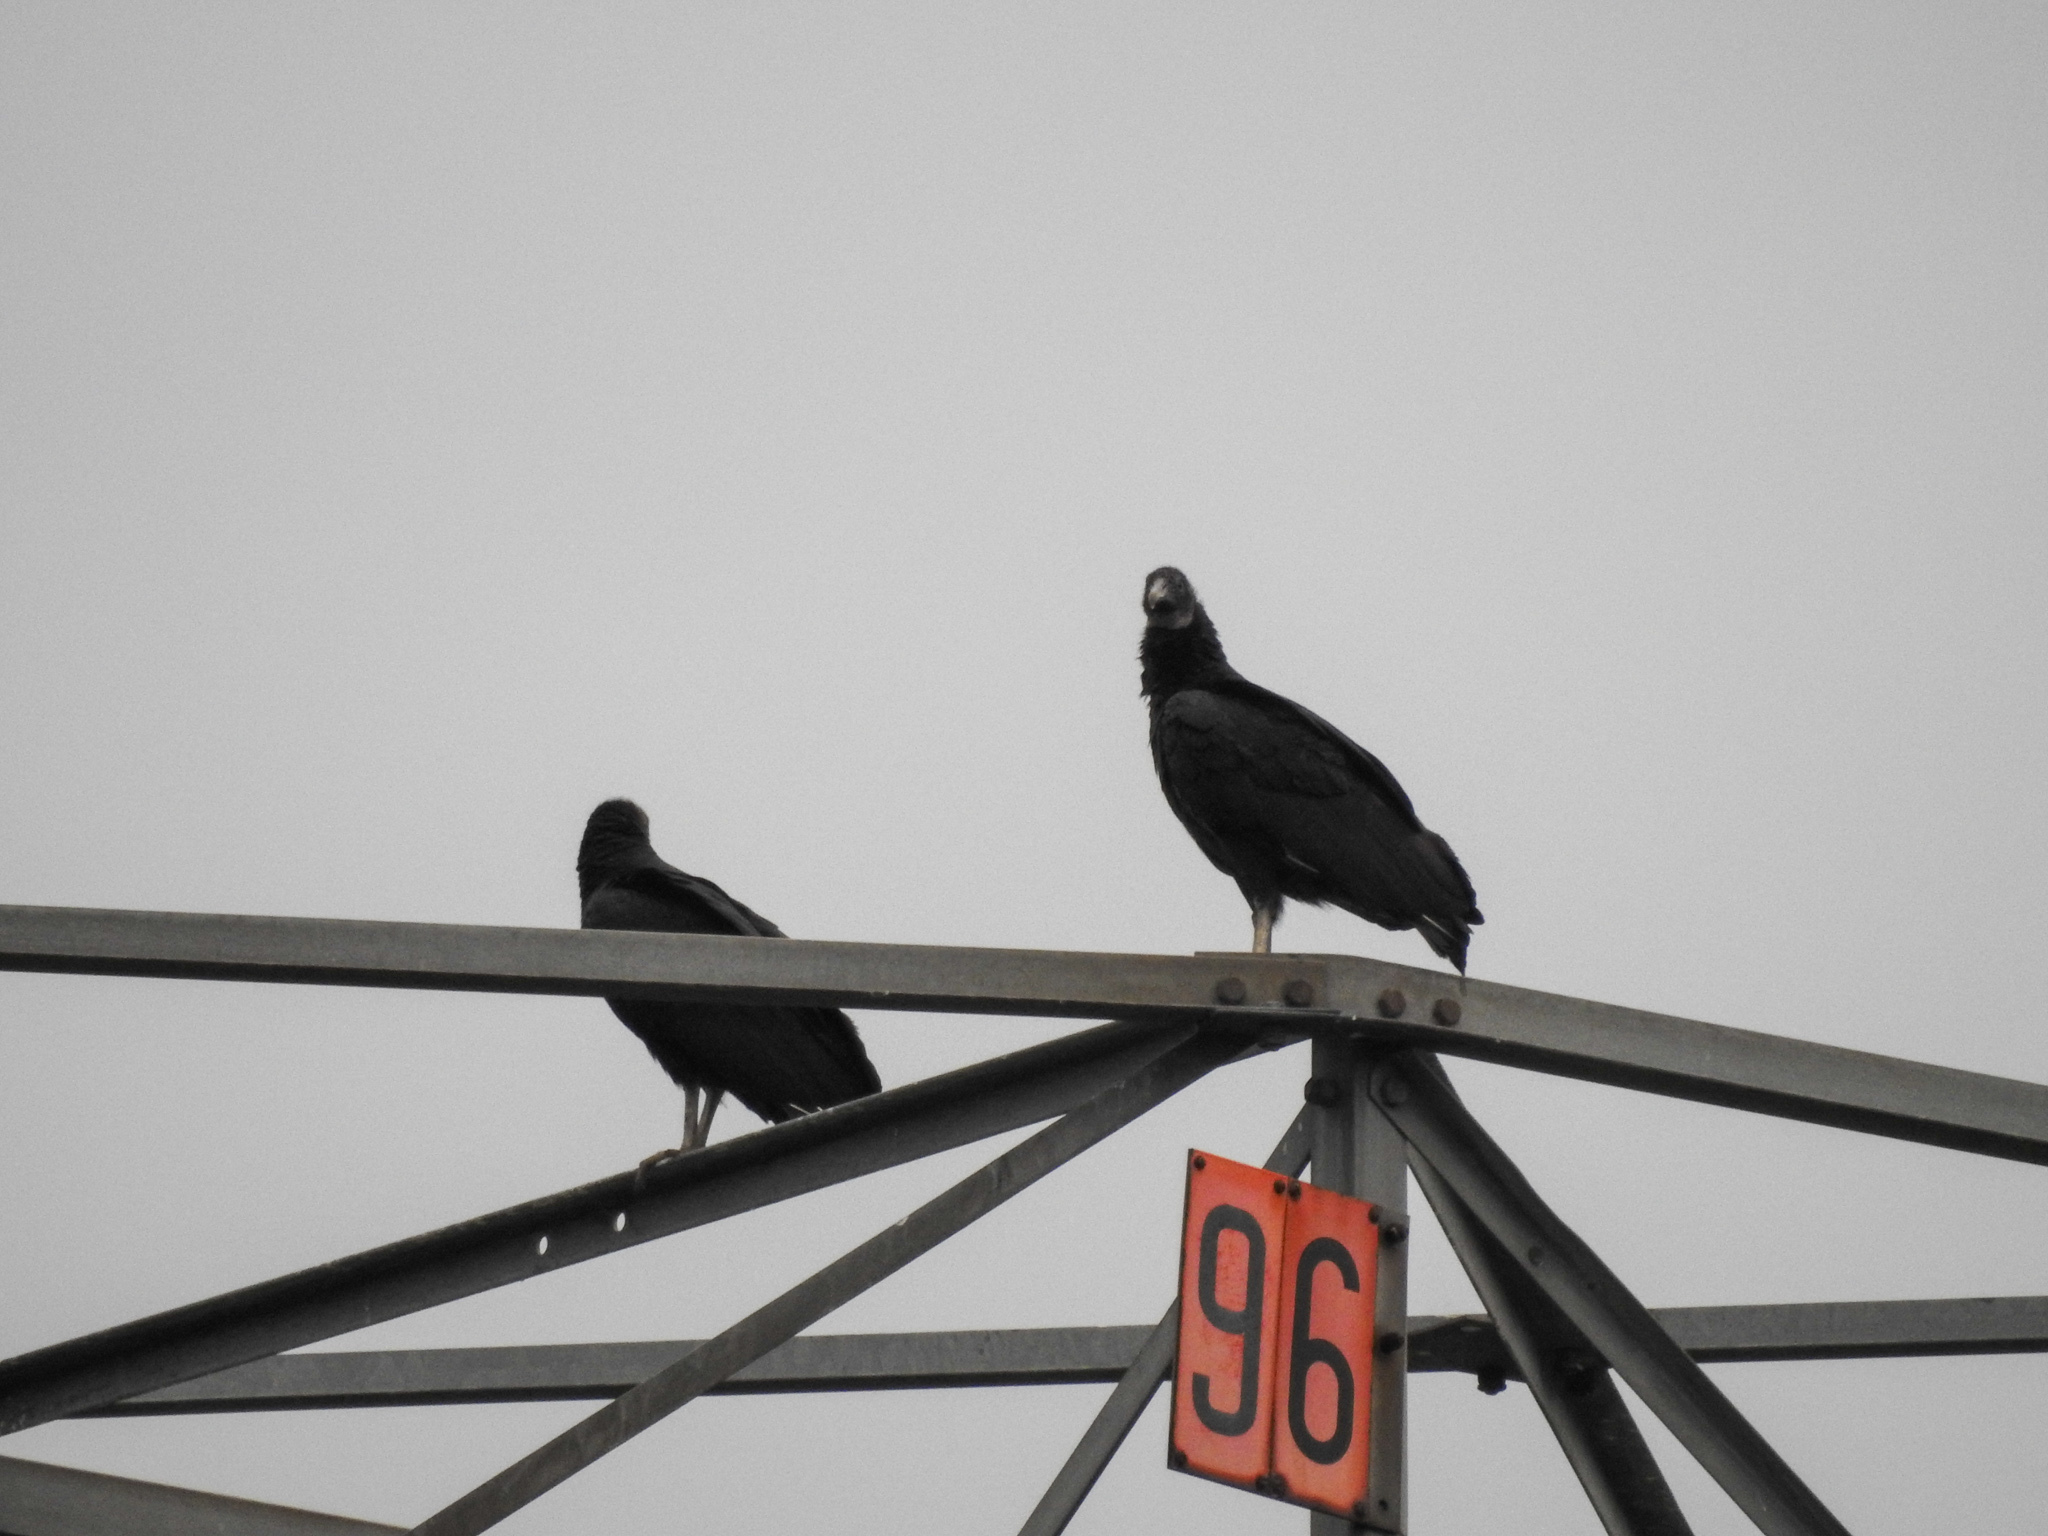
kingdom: Animalia
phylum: Chordata
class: Aves
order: Accipitriformes
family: Cathartidae
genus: Coragyps
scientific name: Coragyps atratus
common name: Black vulture
